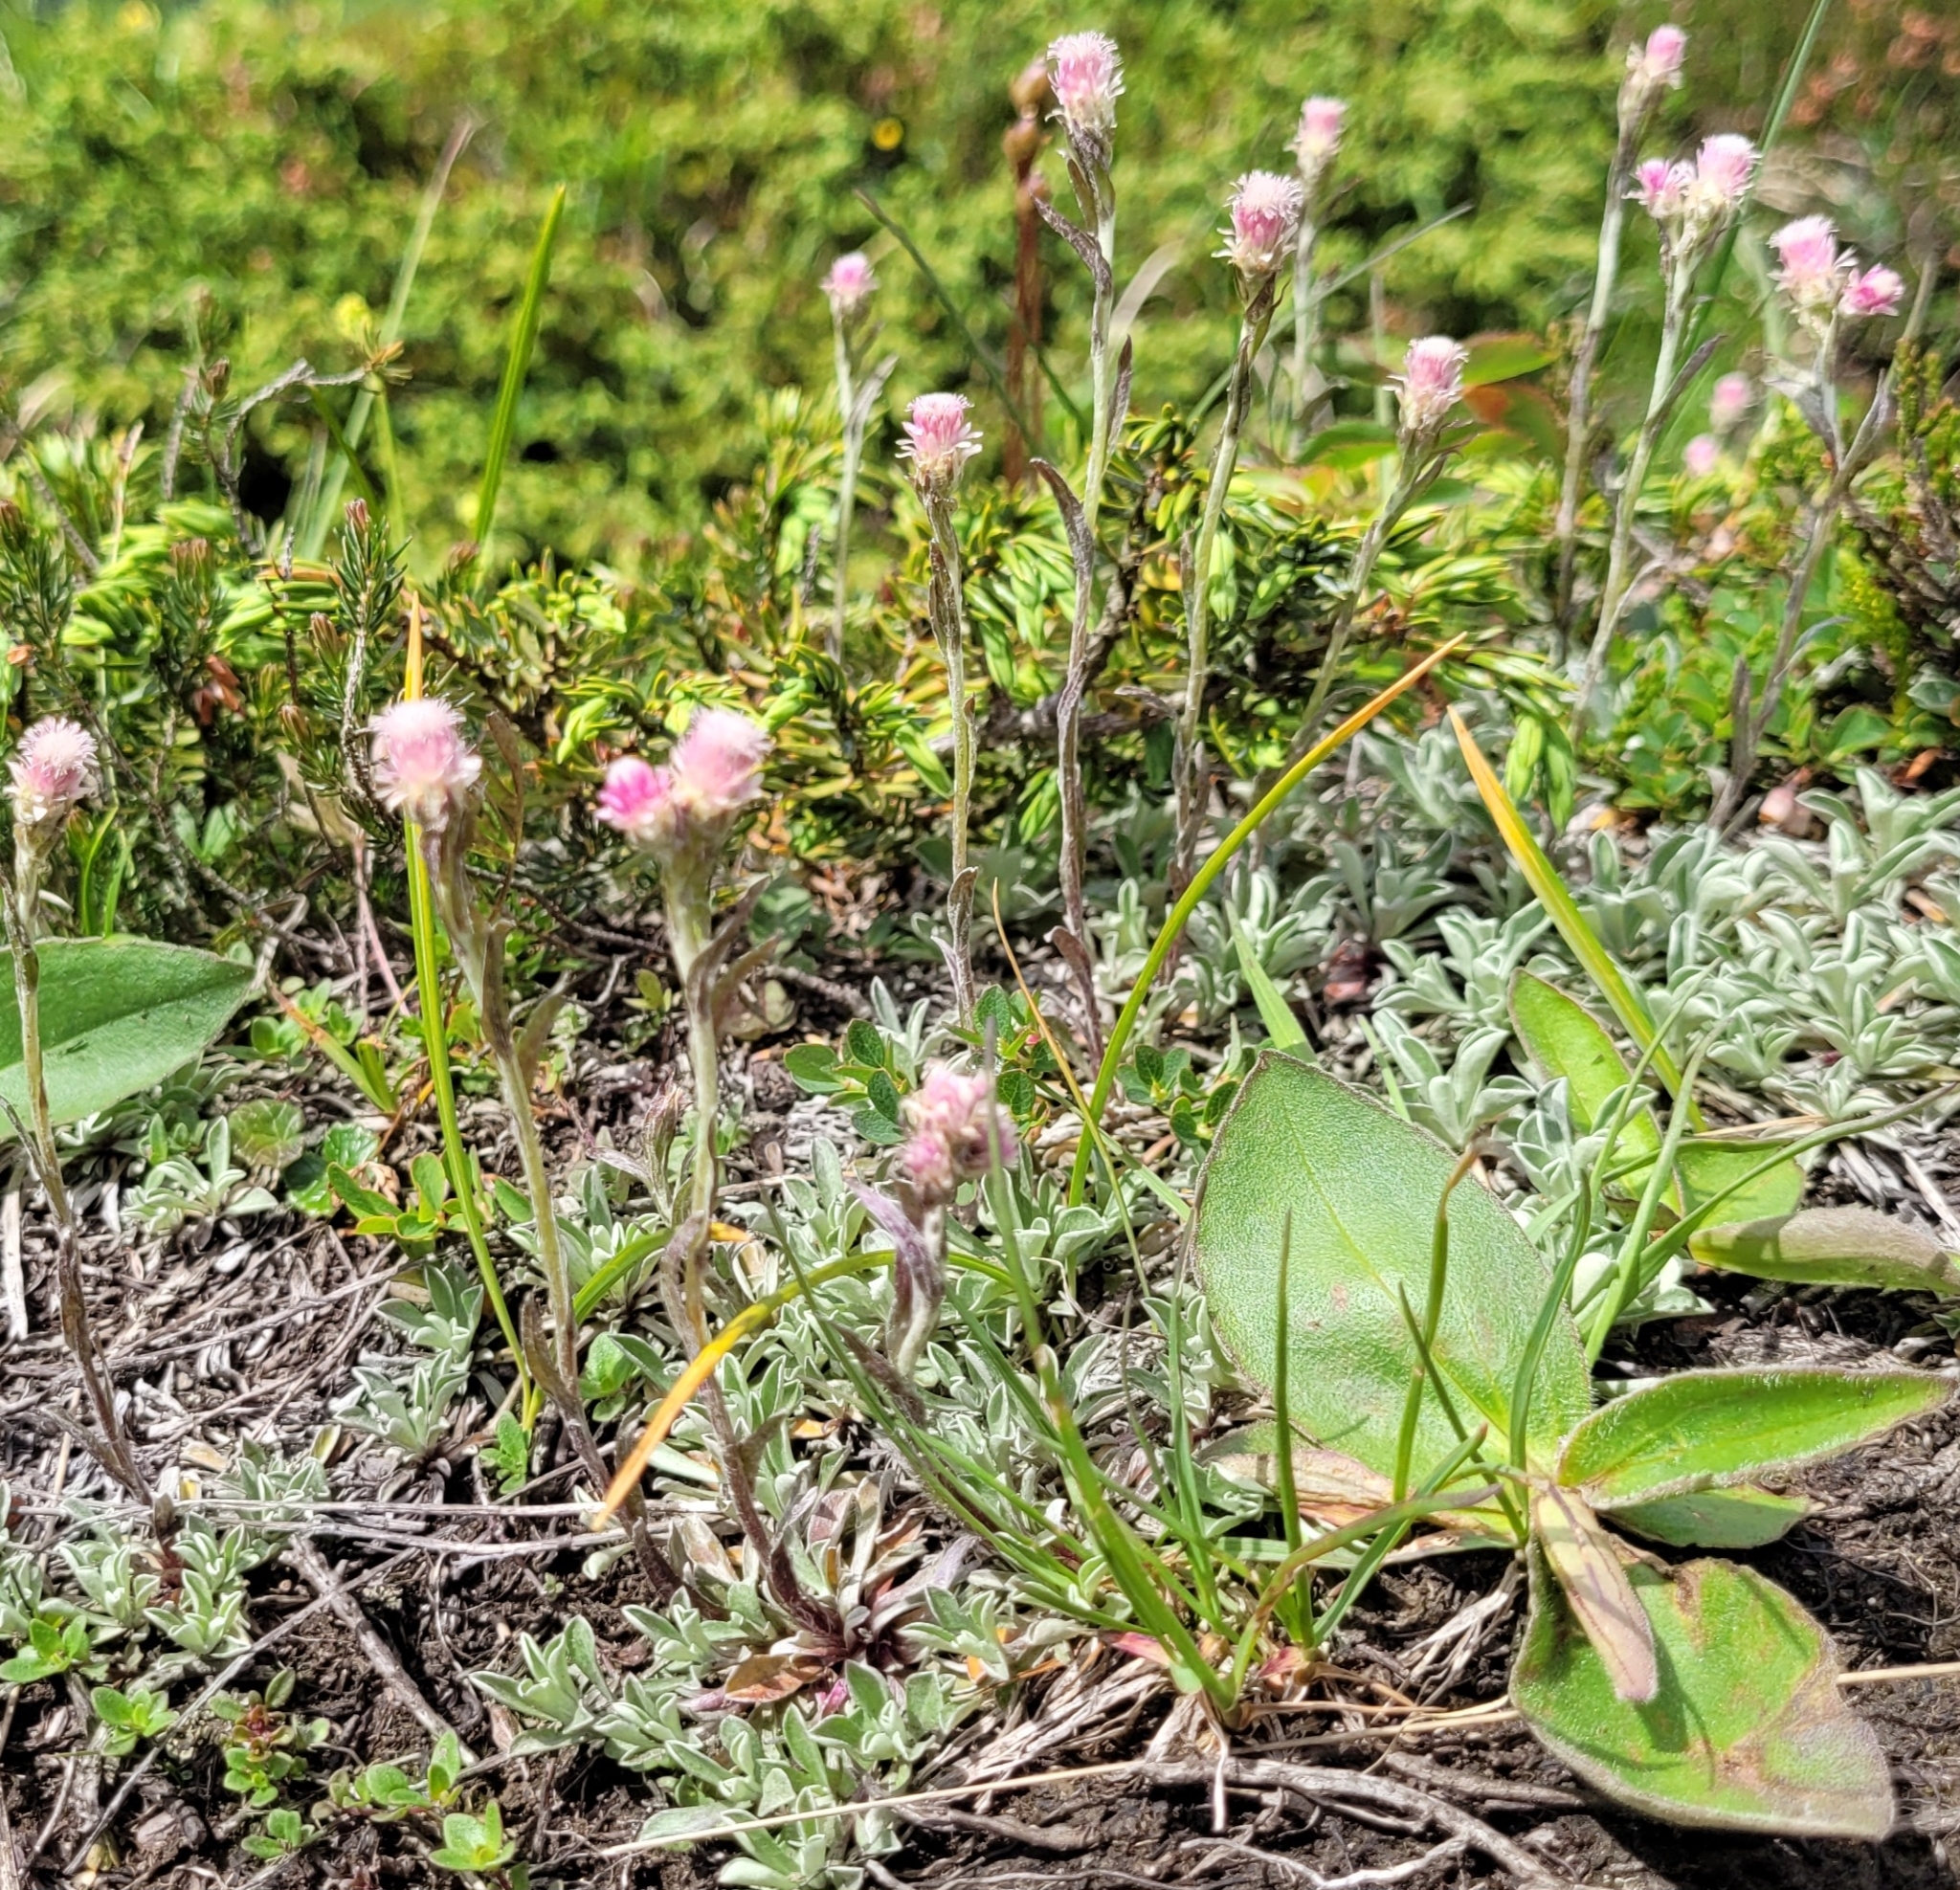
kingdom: Plantae
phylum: Tracheophyta
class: Magnoliopsida
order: Asterales
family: Asteraceae
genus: Antennaria
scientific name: Antennaria dioica
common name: Mountain everlasting
